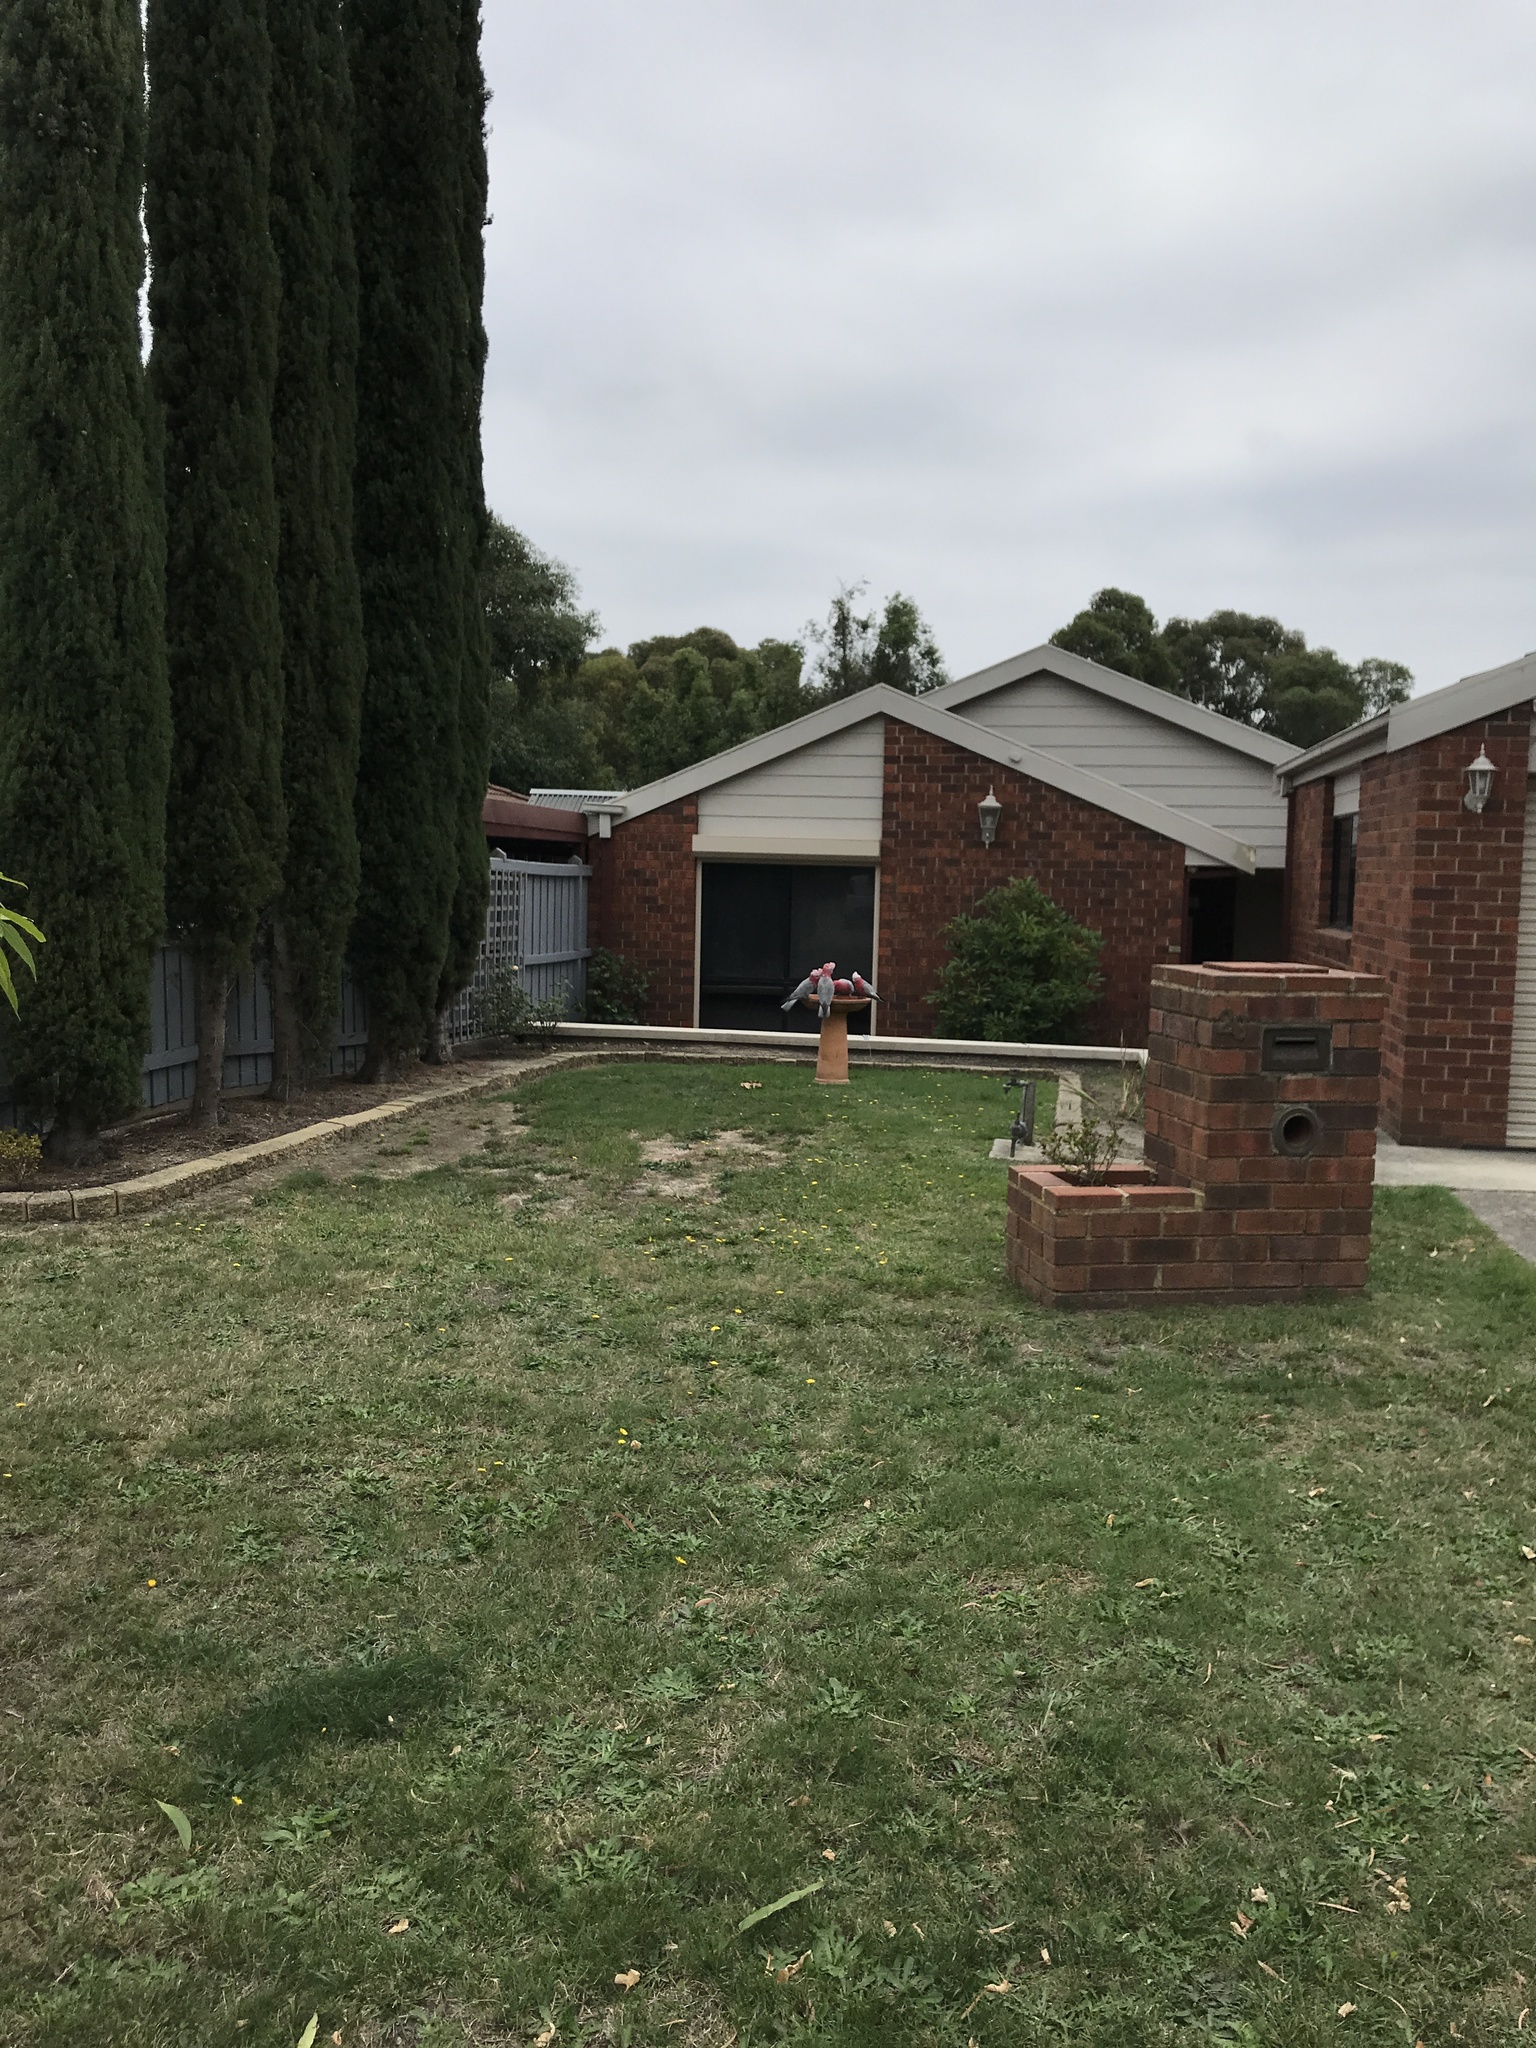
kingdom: Animalia
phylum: Chordata
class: Aves
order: Psittaciformes
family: Psittacidae
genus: Eolophus
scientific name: Eolophus roseicapilla
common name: Galah
